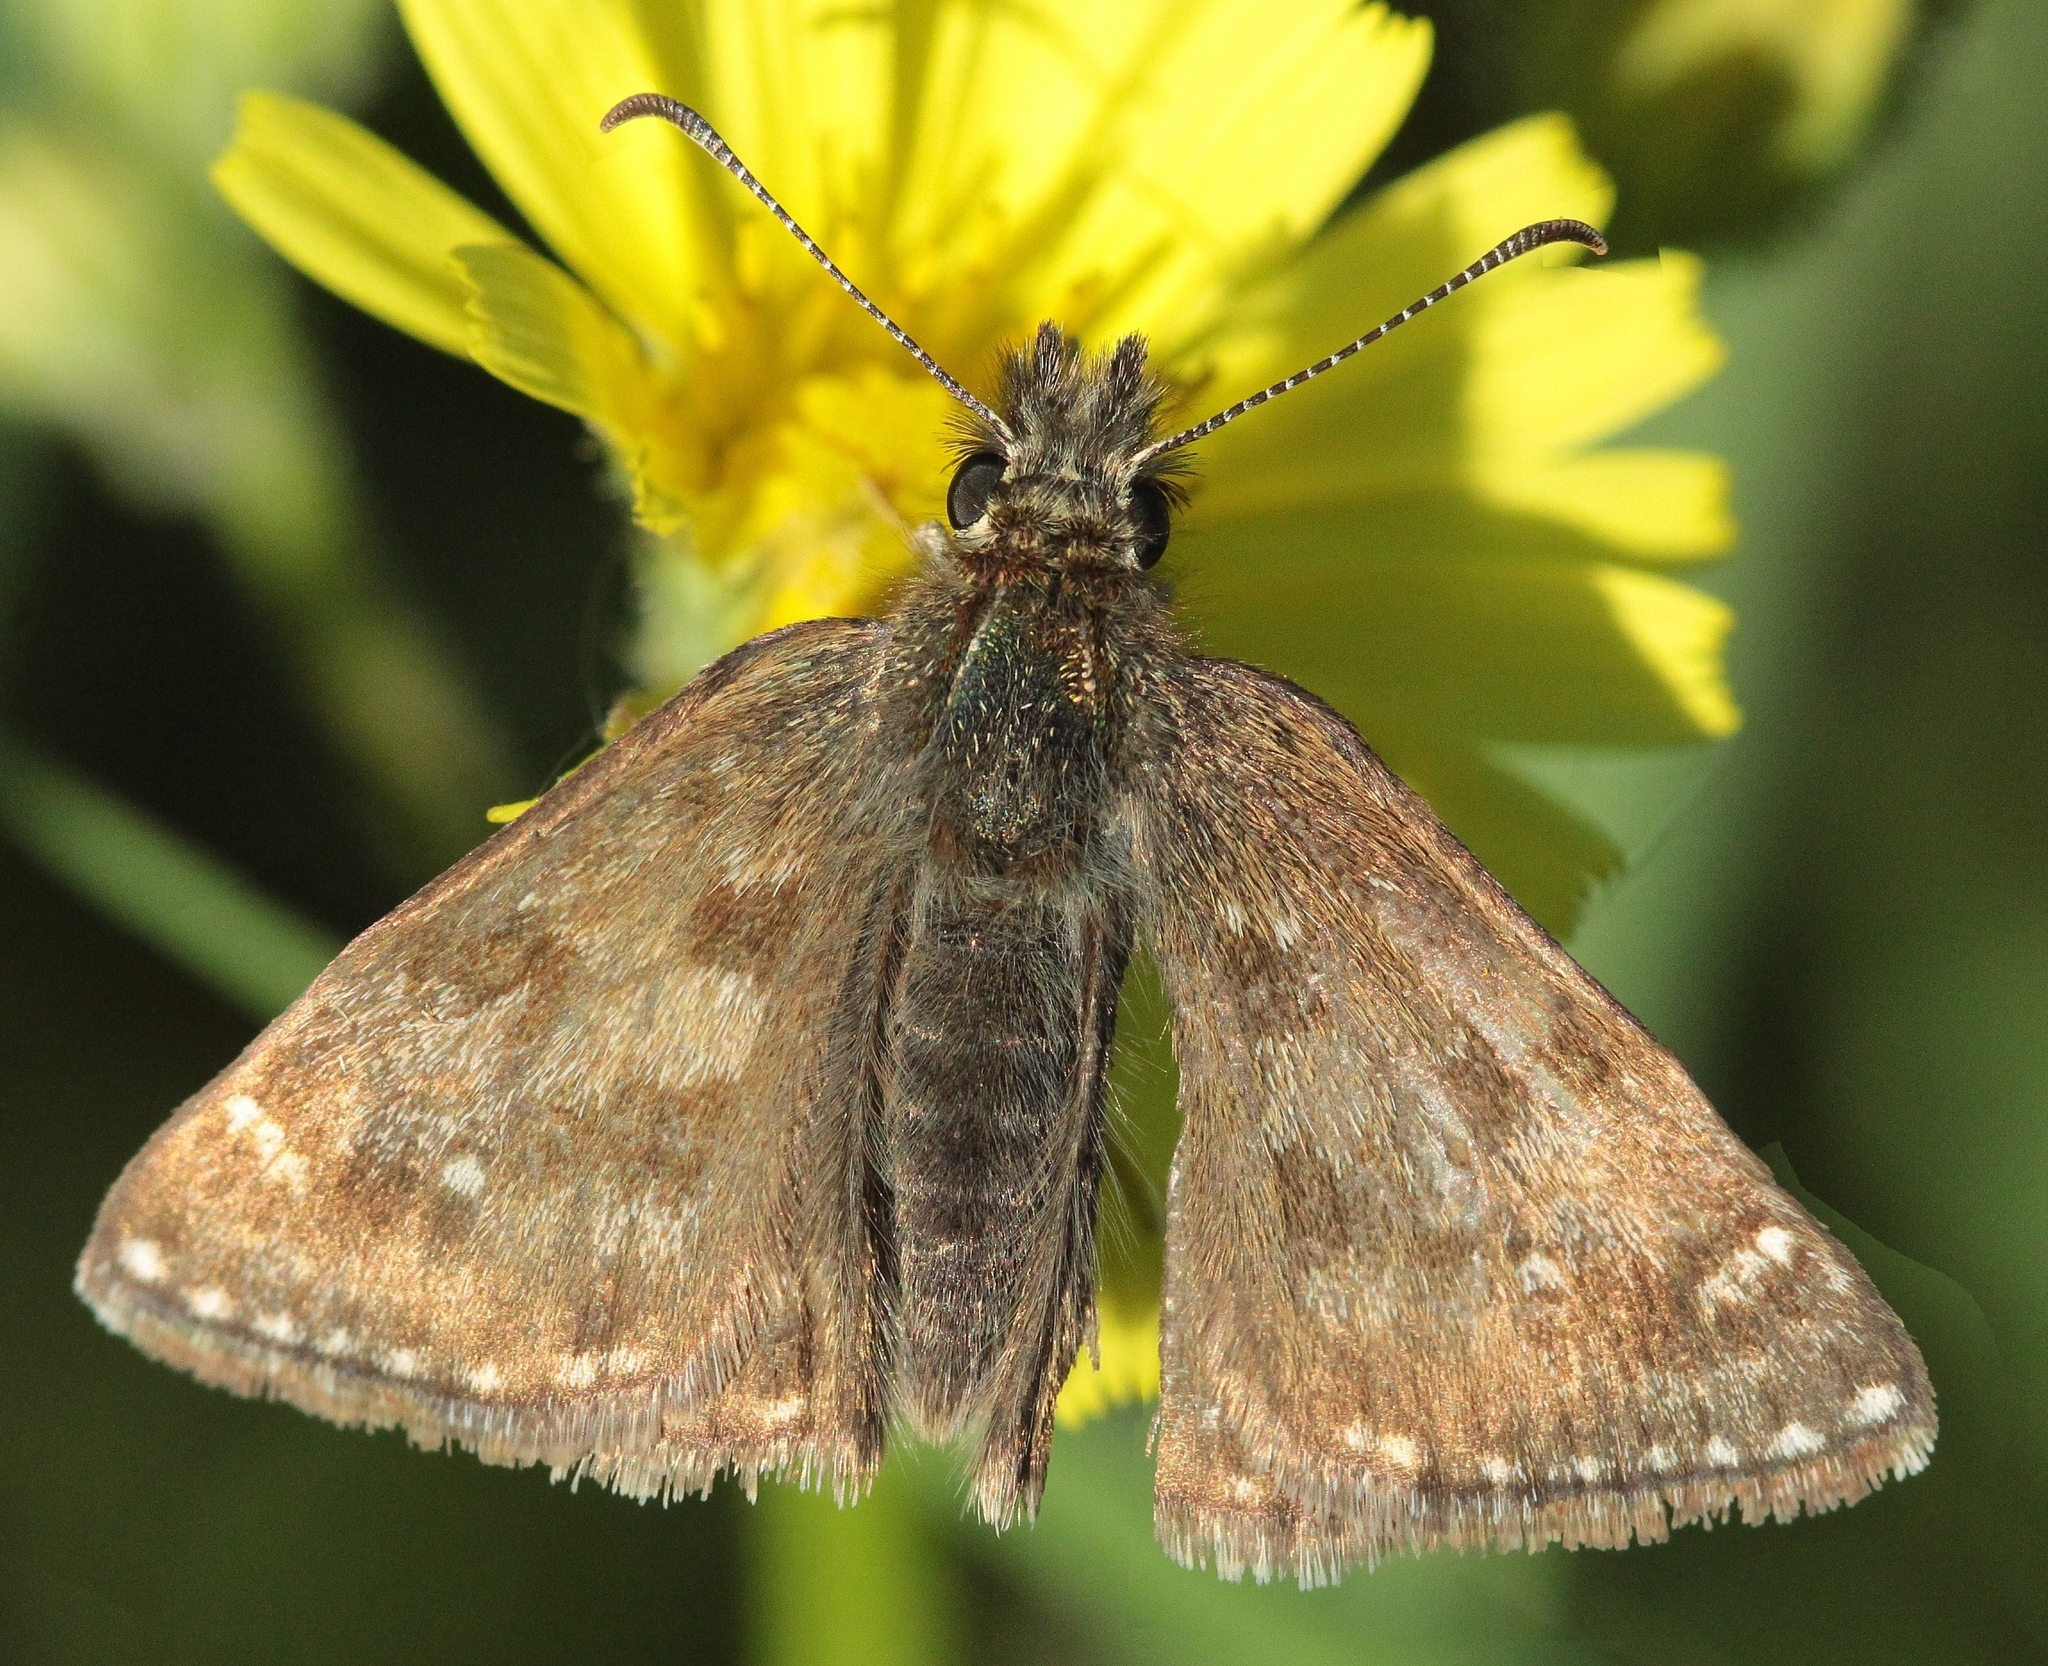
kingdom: Animalia
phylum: Arthropoda
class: Insecta
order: Lepidoptera
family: Hesperiidae
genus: Erynnis
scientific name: Erynnis tages
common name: Dingy skipper
